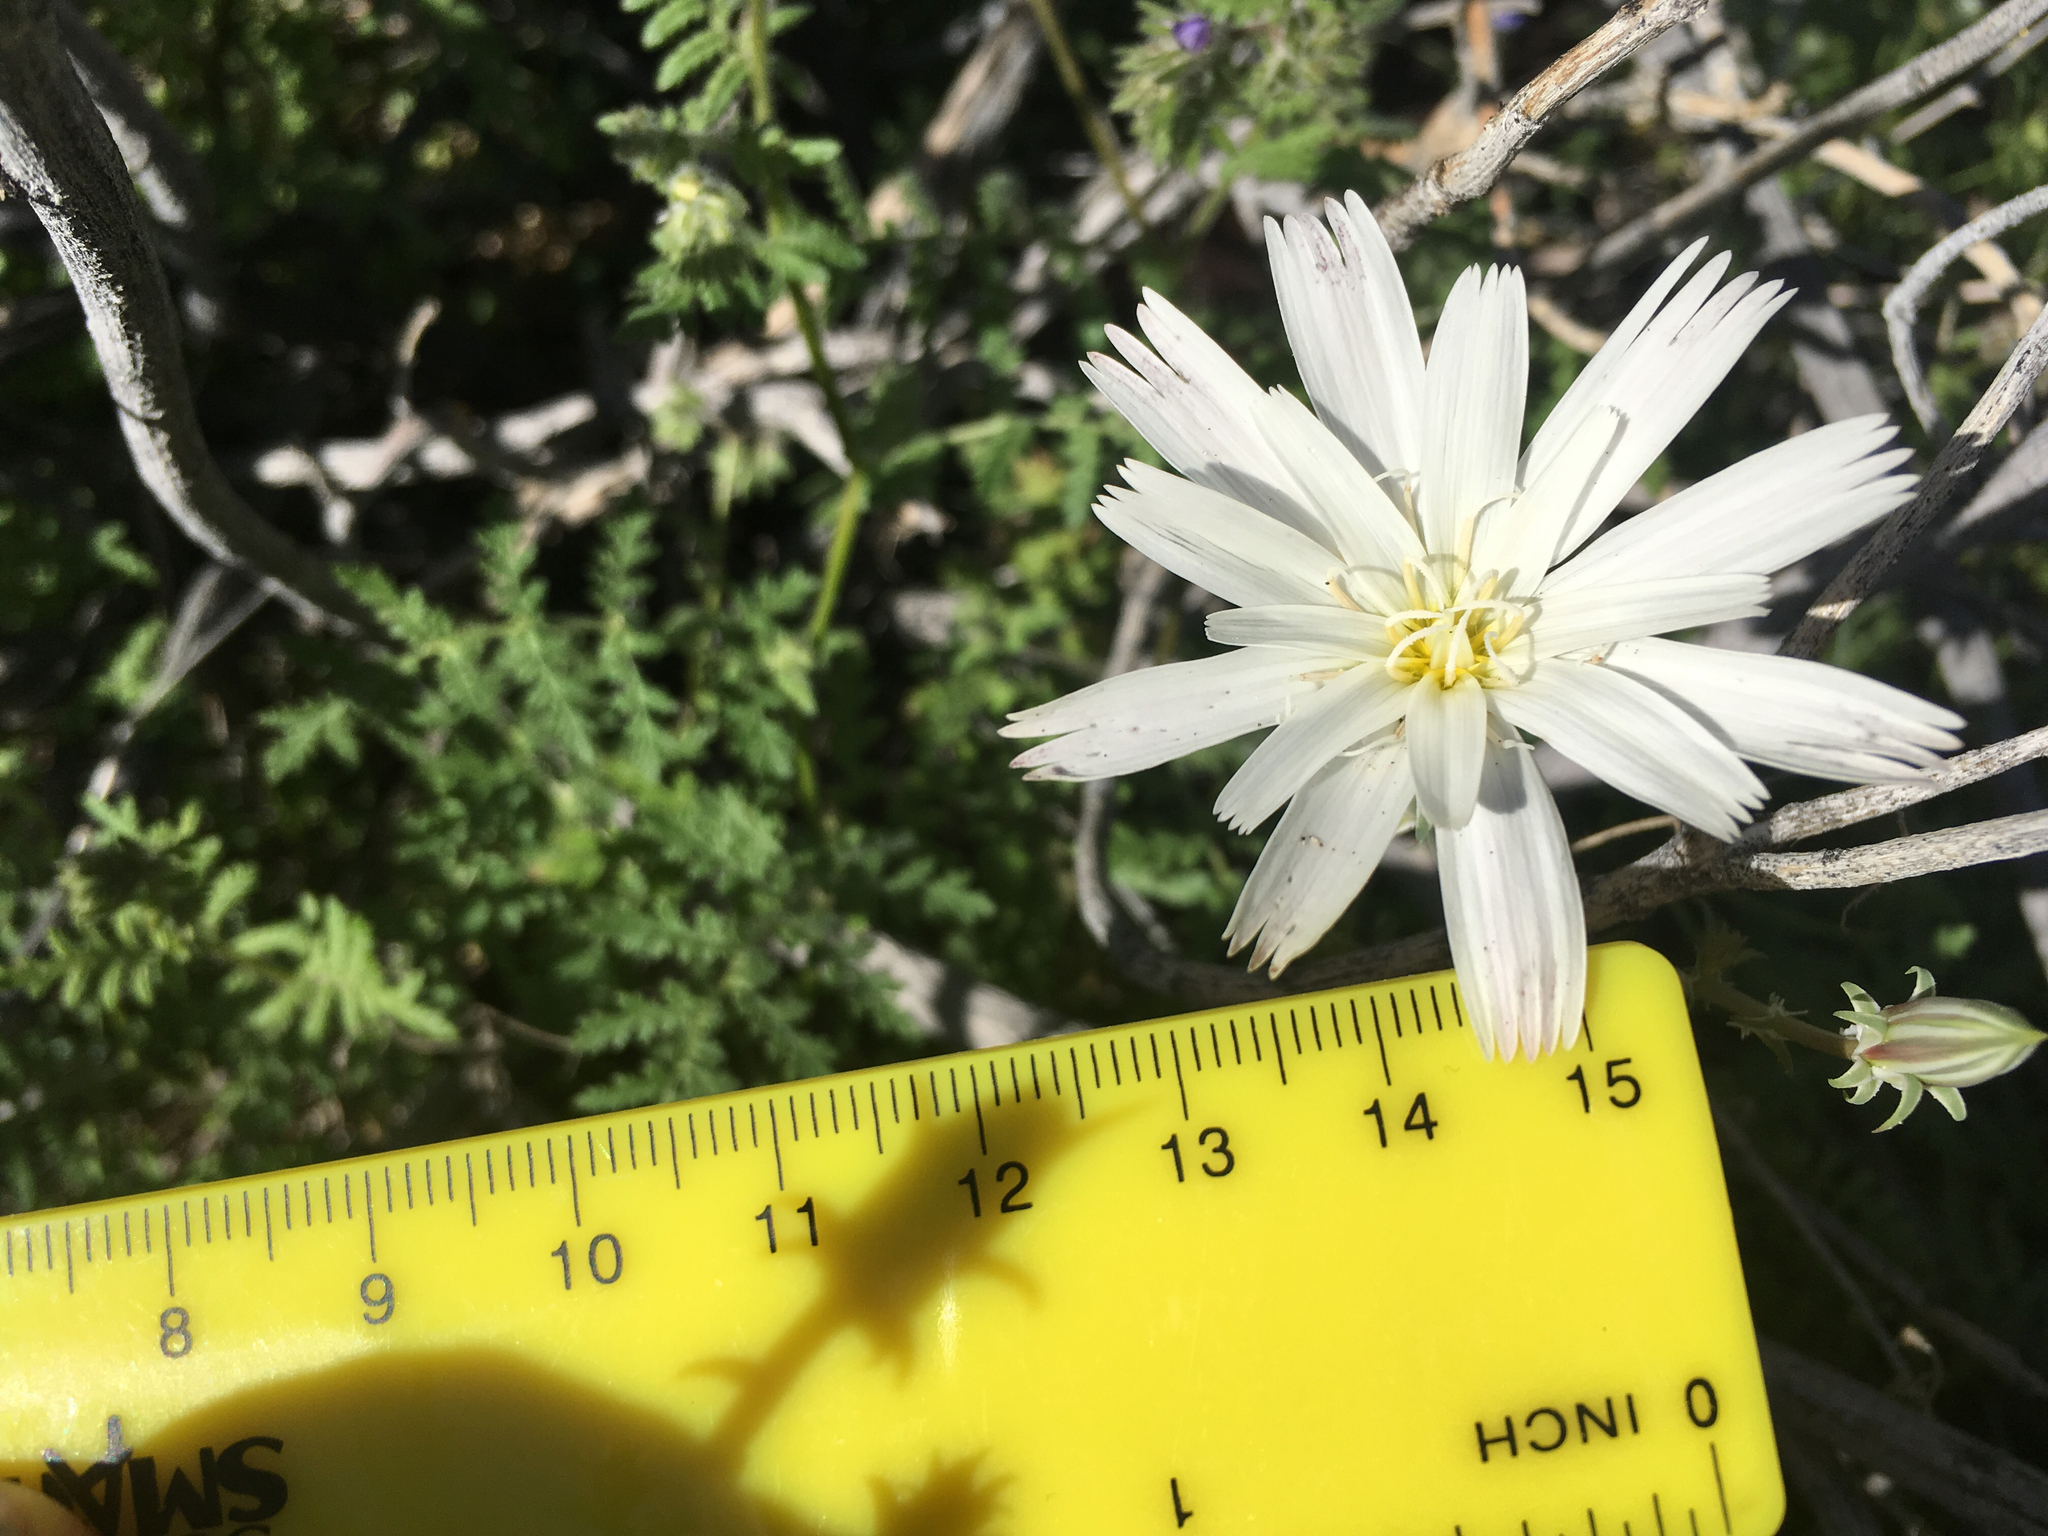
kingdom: Plantae
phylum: Tracheophyta
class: Magnoliopsida
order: Asterales
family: Asteraceae
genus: Rafinesquia
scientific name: Rafinesquia neomexicana
